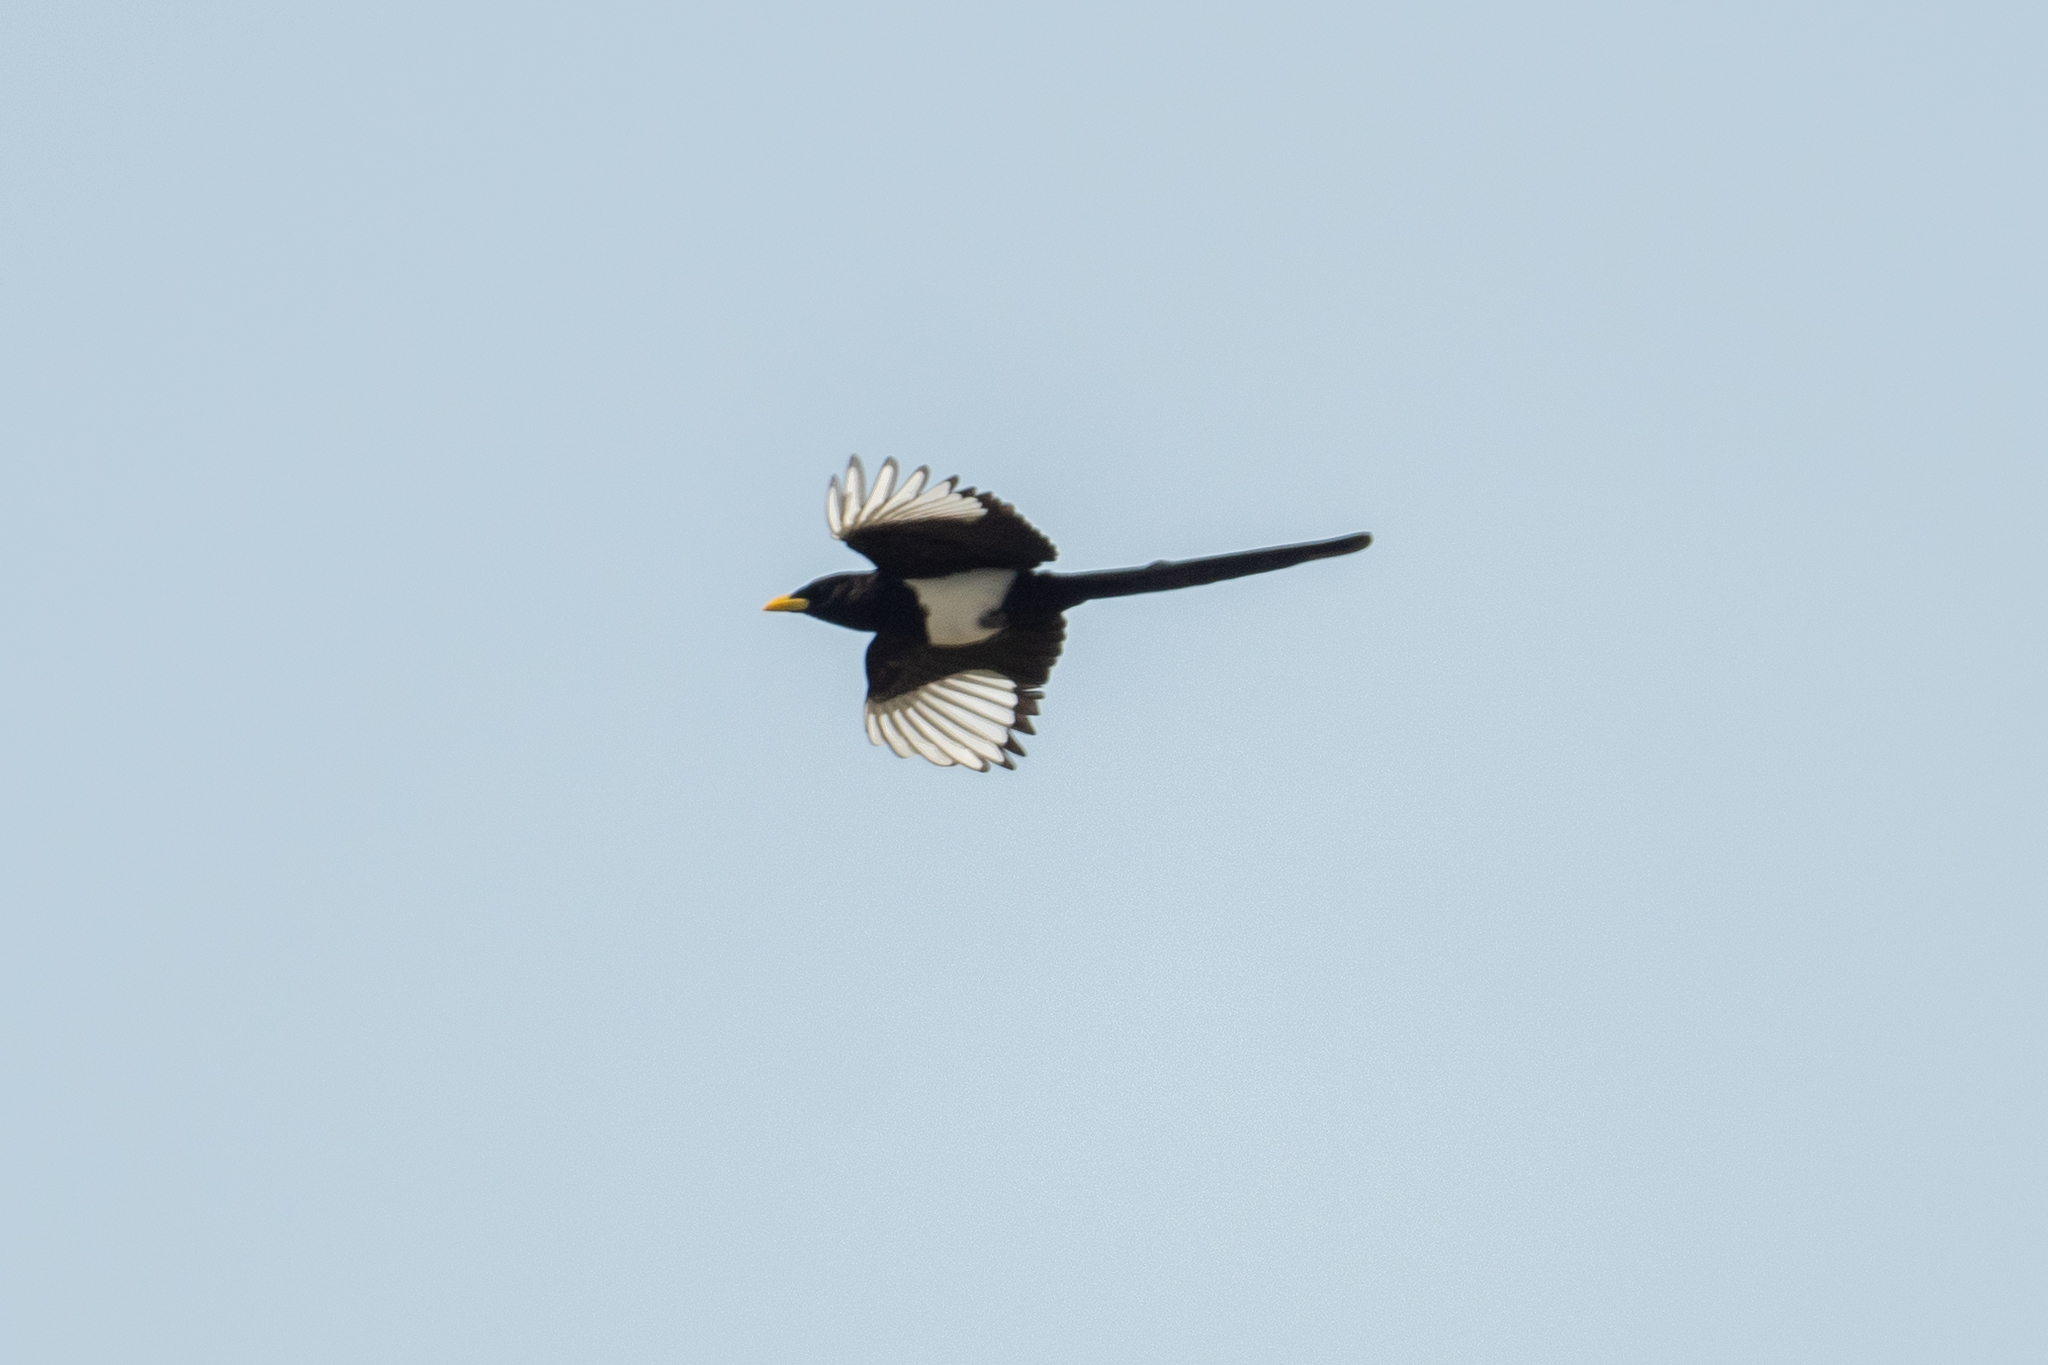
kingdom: Animalia
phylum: Chordata
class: Aves
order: Passeriformes
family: Corvidae
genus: Pica
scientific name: Pica nuttalli
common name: Yellow-billed magpie
